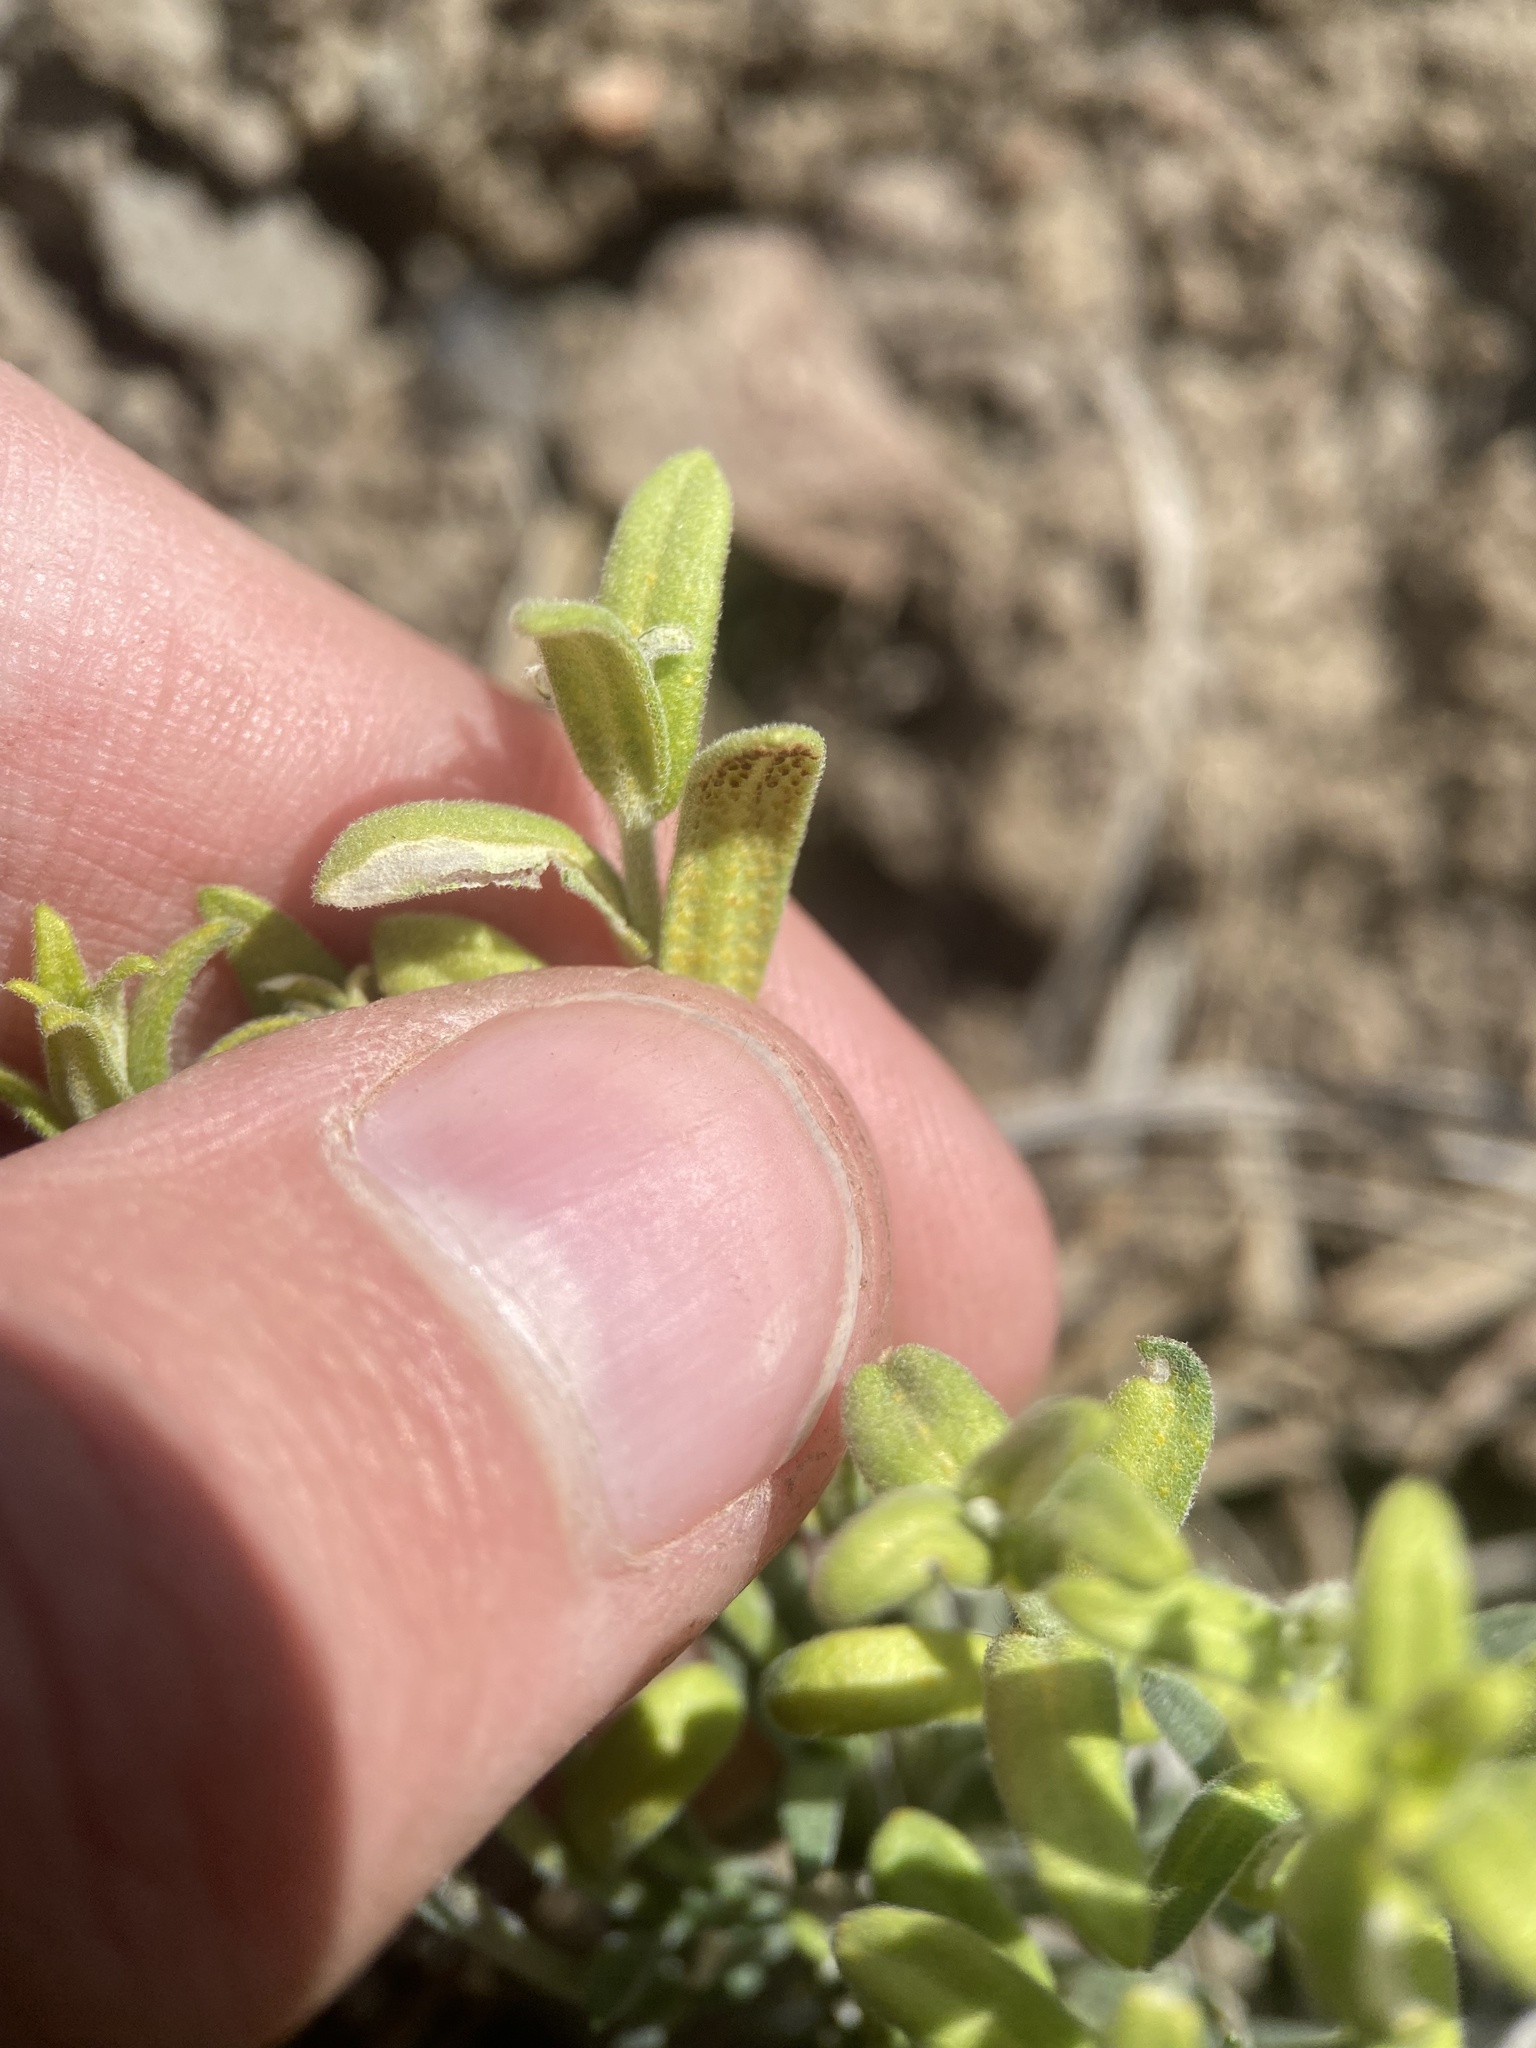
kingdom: Fungi
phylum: Basidiomycota
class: Pucciniomycetes
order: Pucciniales
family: Pucciniaceae
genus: Puccinia
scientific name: Puccinia monoica
